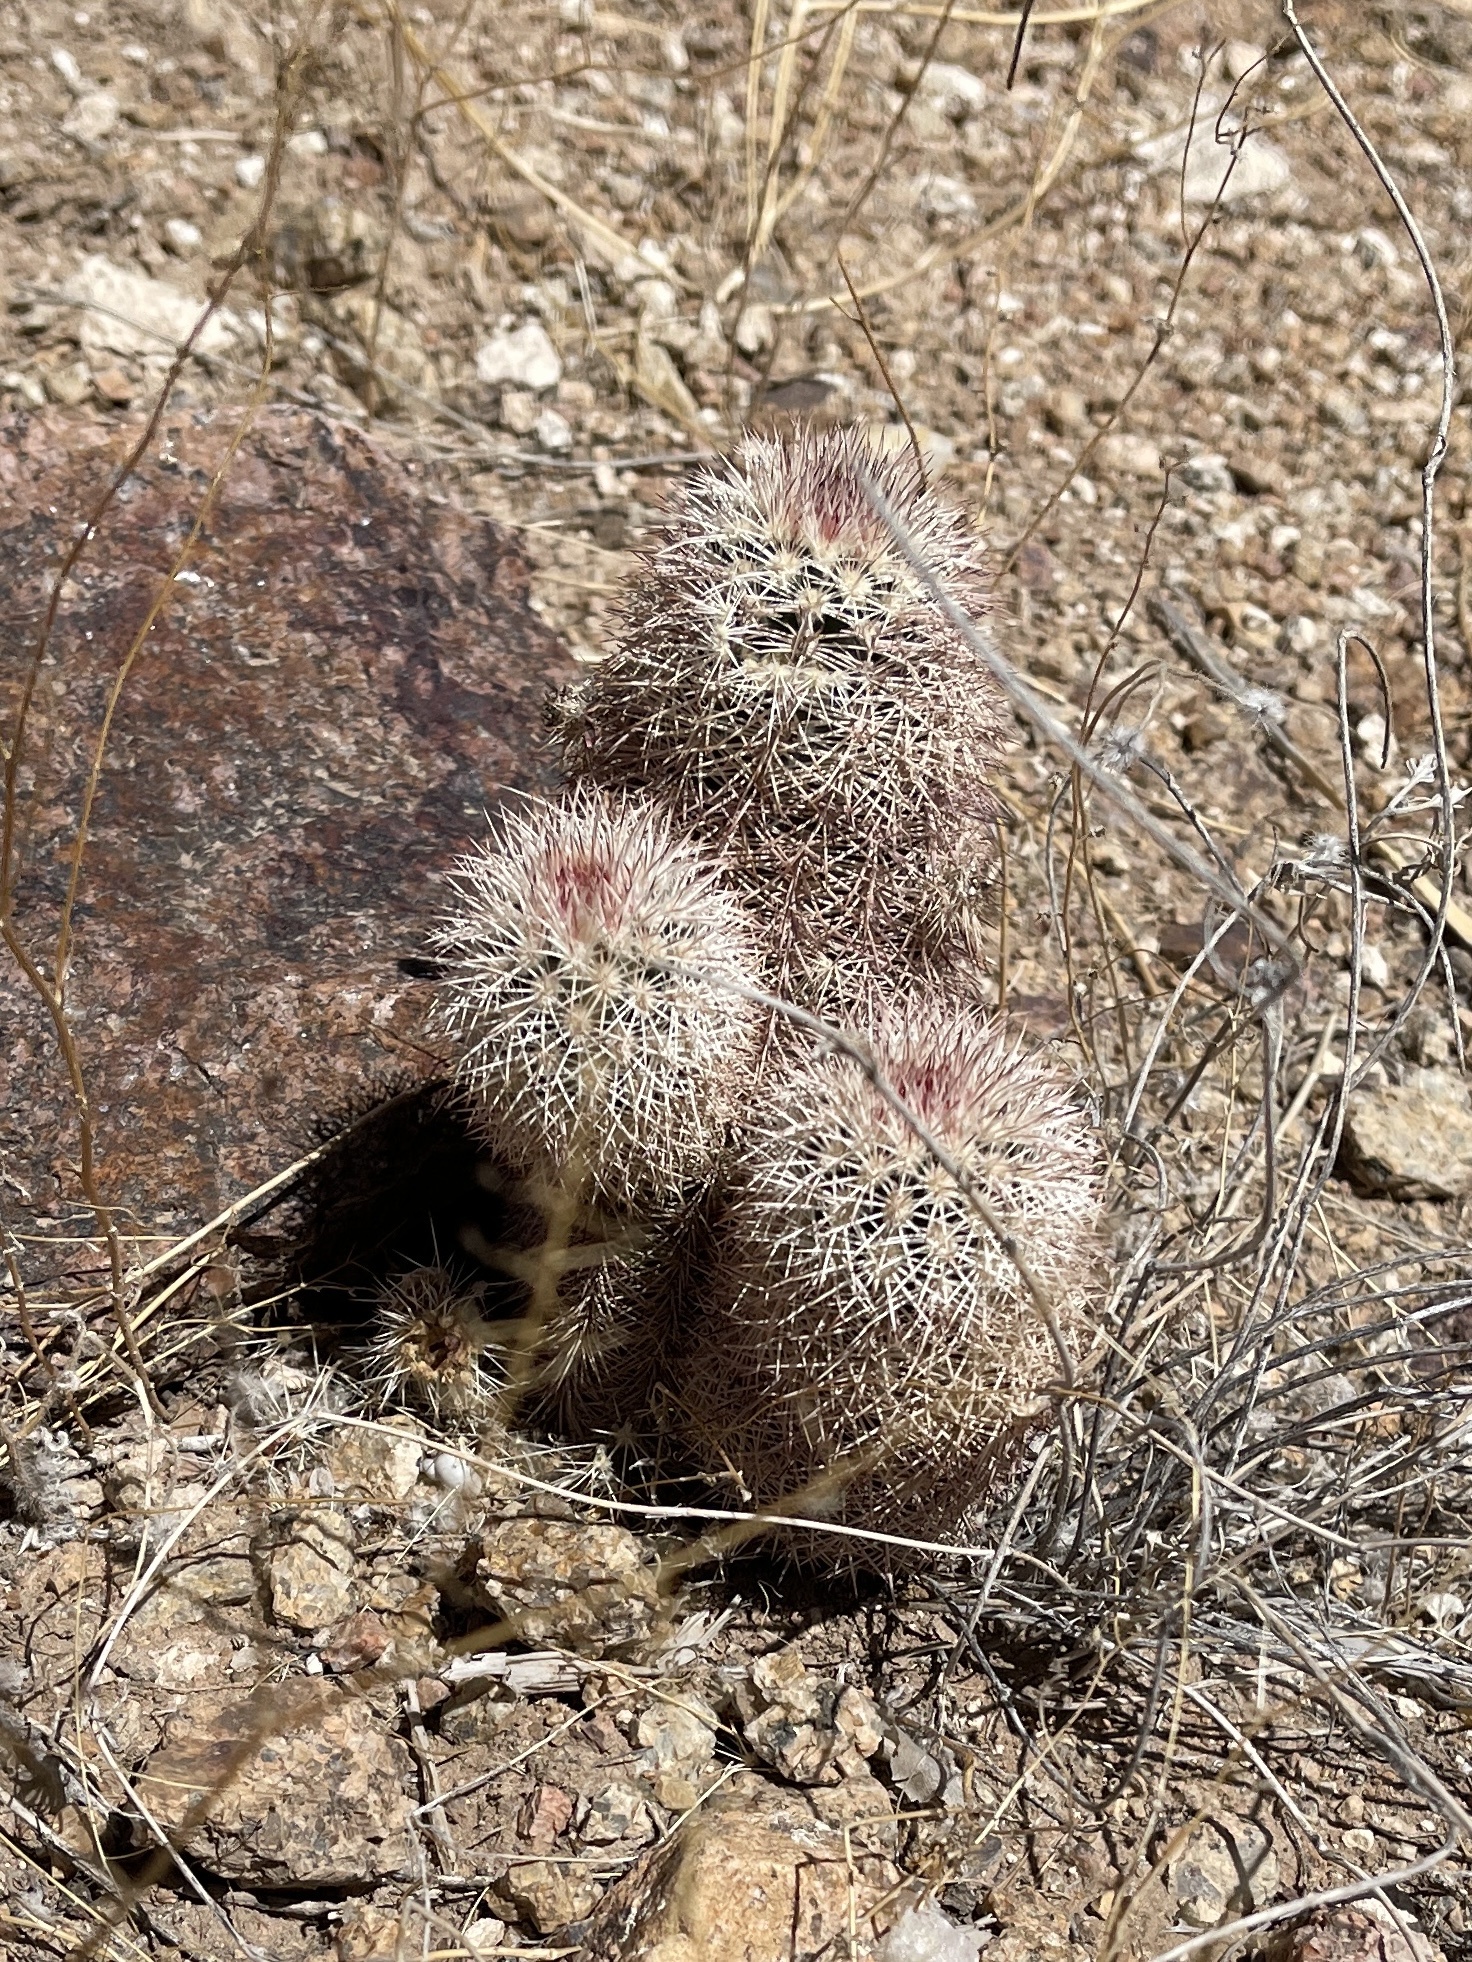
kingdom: Plantae
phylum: Tracheophyta
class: Magnoliopsida
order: Caryophyllales
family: Cactaceae
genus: Echinocereus
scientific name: Echinocereus dasyacanthus
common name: Spiny hedgehog cactus
